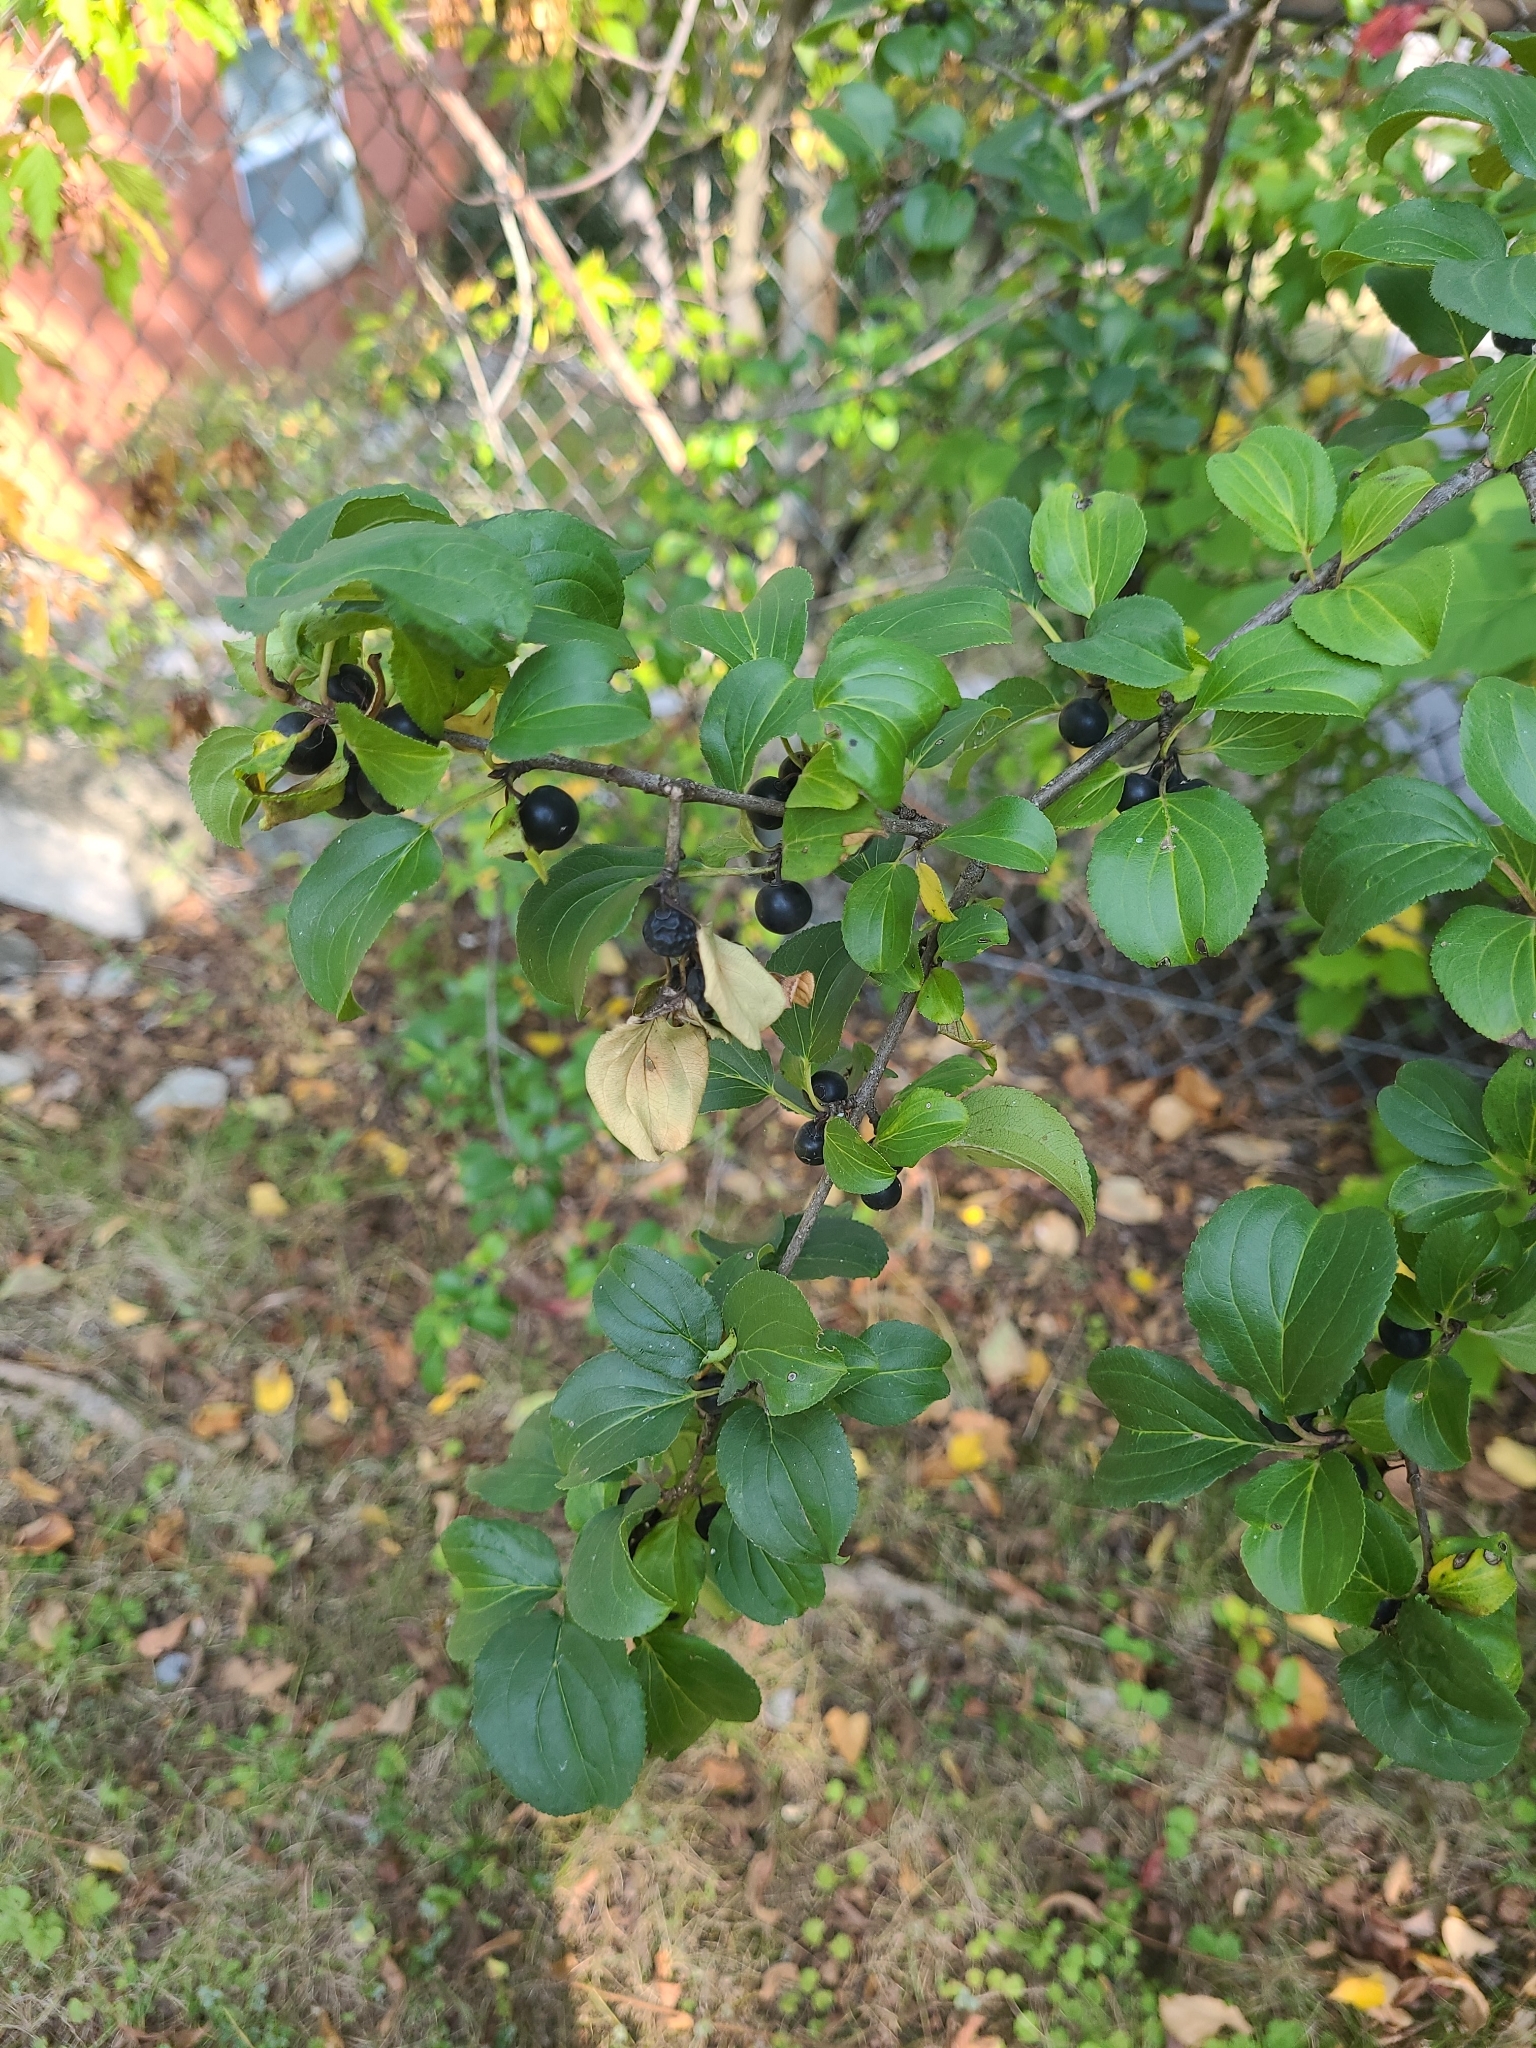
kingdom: Plantae
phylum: Tracheophyta
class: Magnoliopsida
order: Rosales
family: Rhamnaceae
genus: Rhamnus
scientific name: Rhamnus cathartica
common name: Common buckthorn
